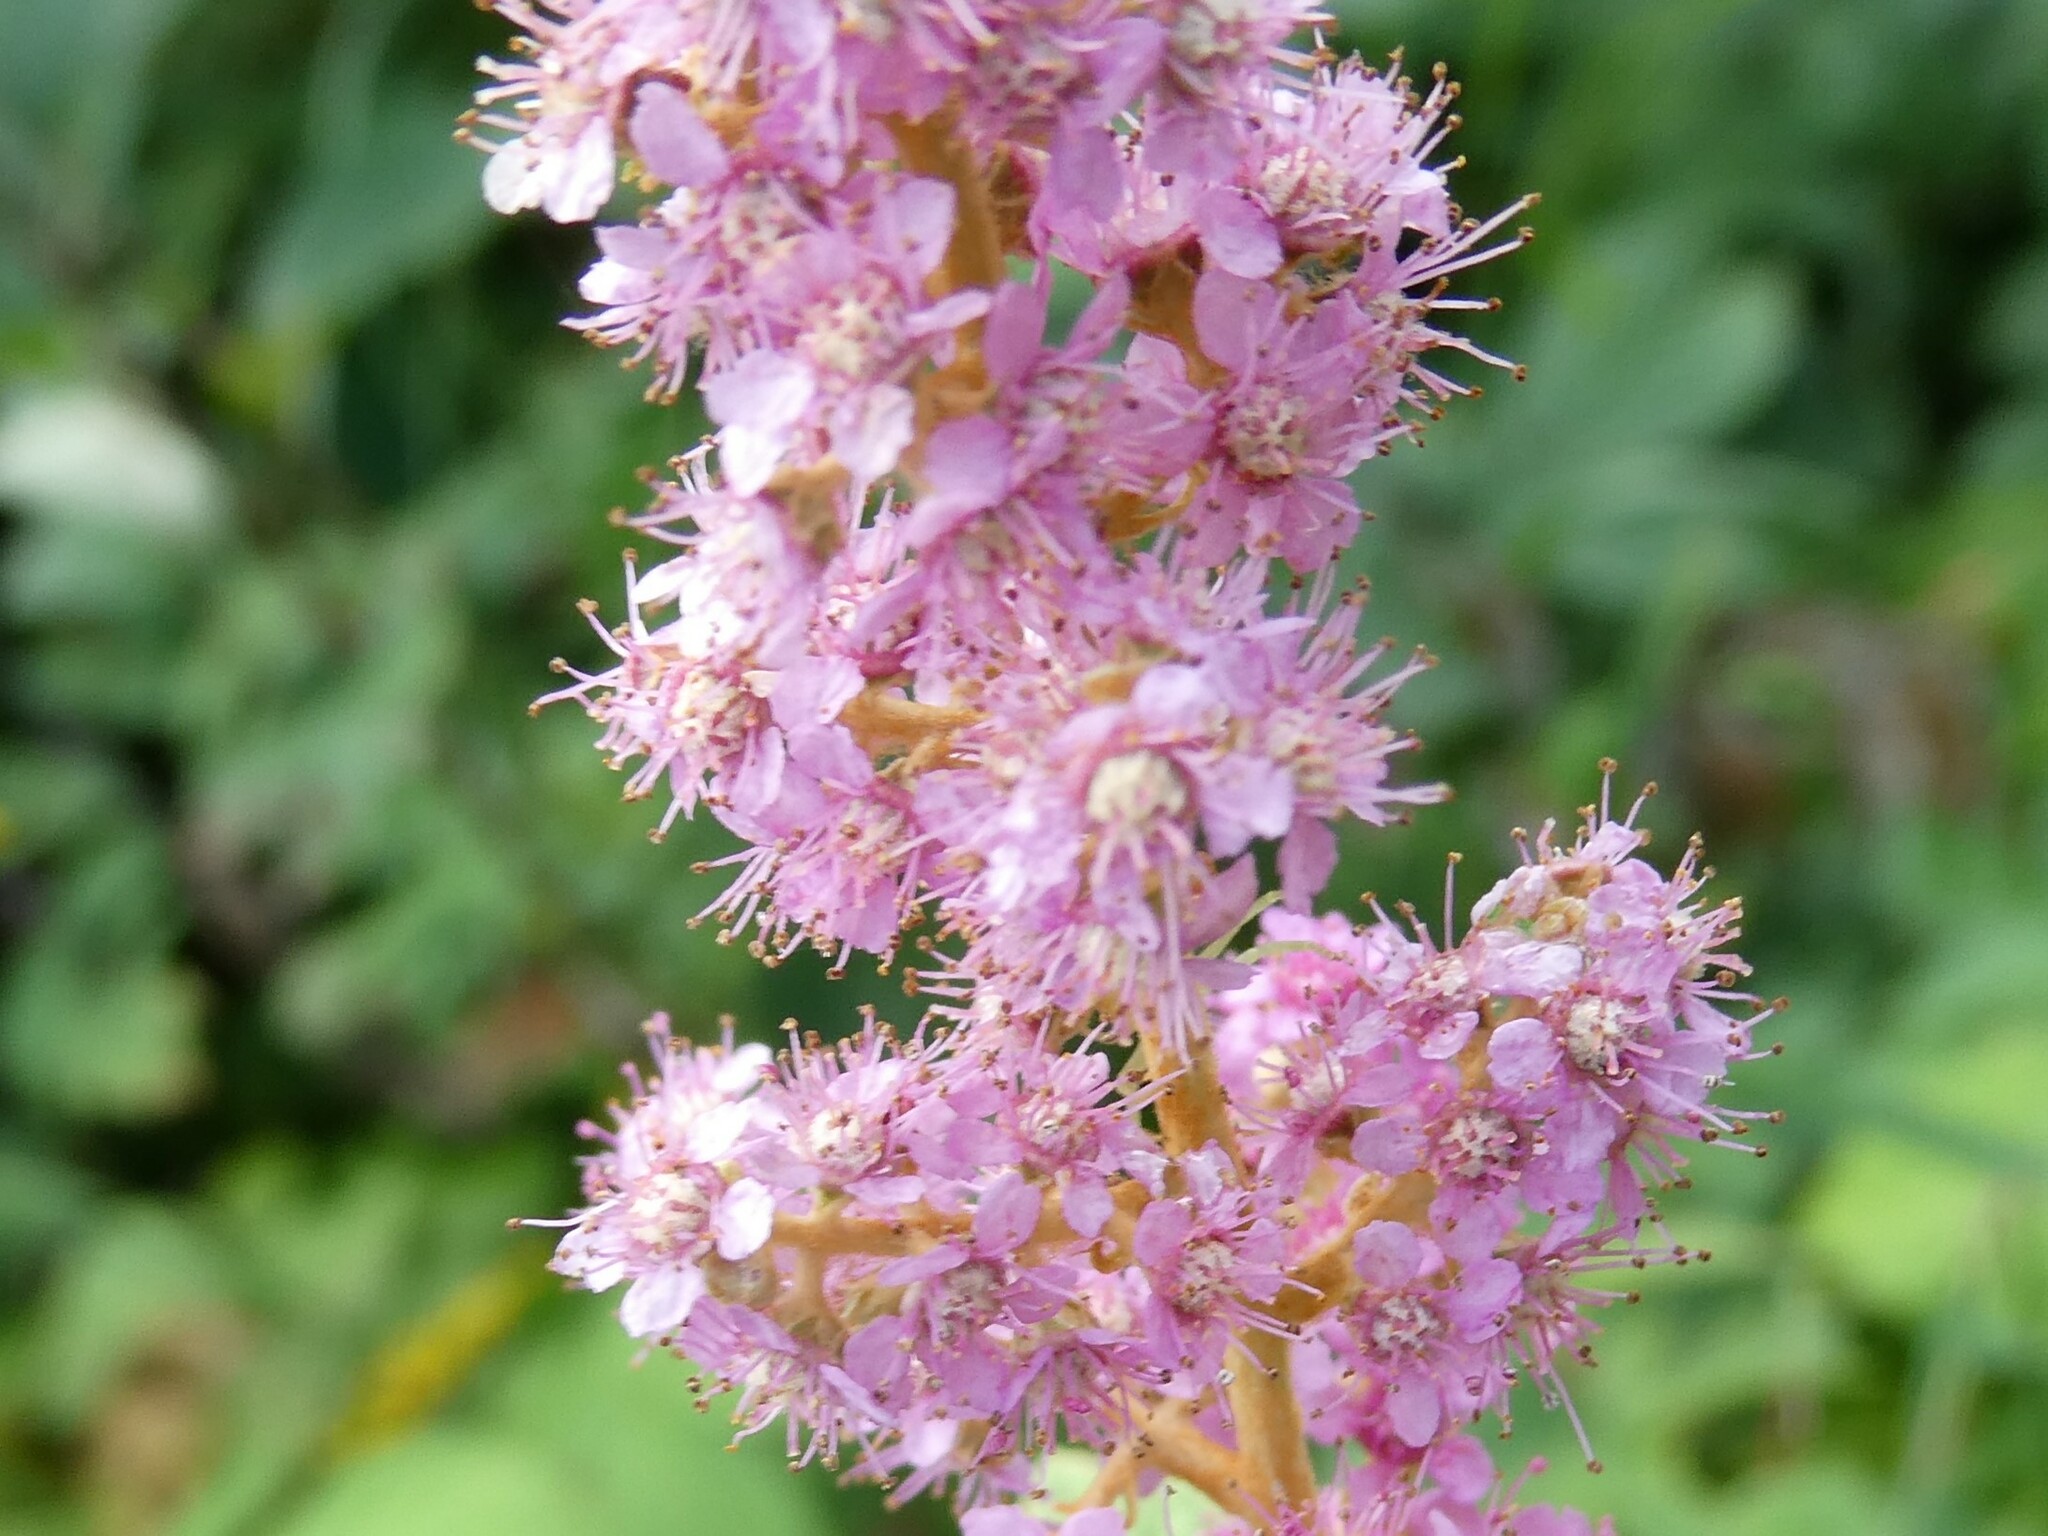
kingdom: Plantae
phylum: Tracheophyta
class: Magnoliopsida
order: Rosales
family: Rosaceae
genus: Spiraea
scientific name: Spiraea tomentosa
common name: Hardhack
